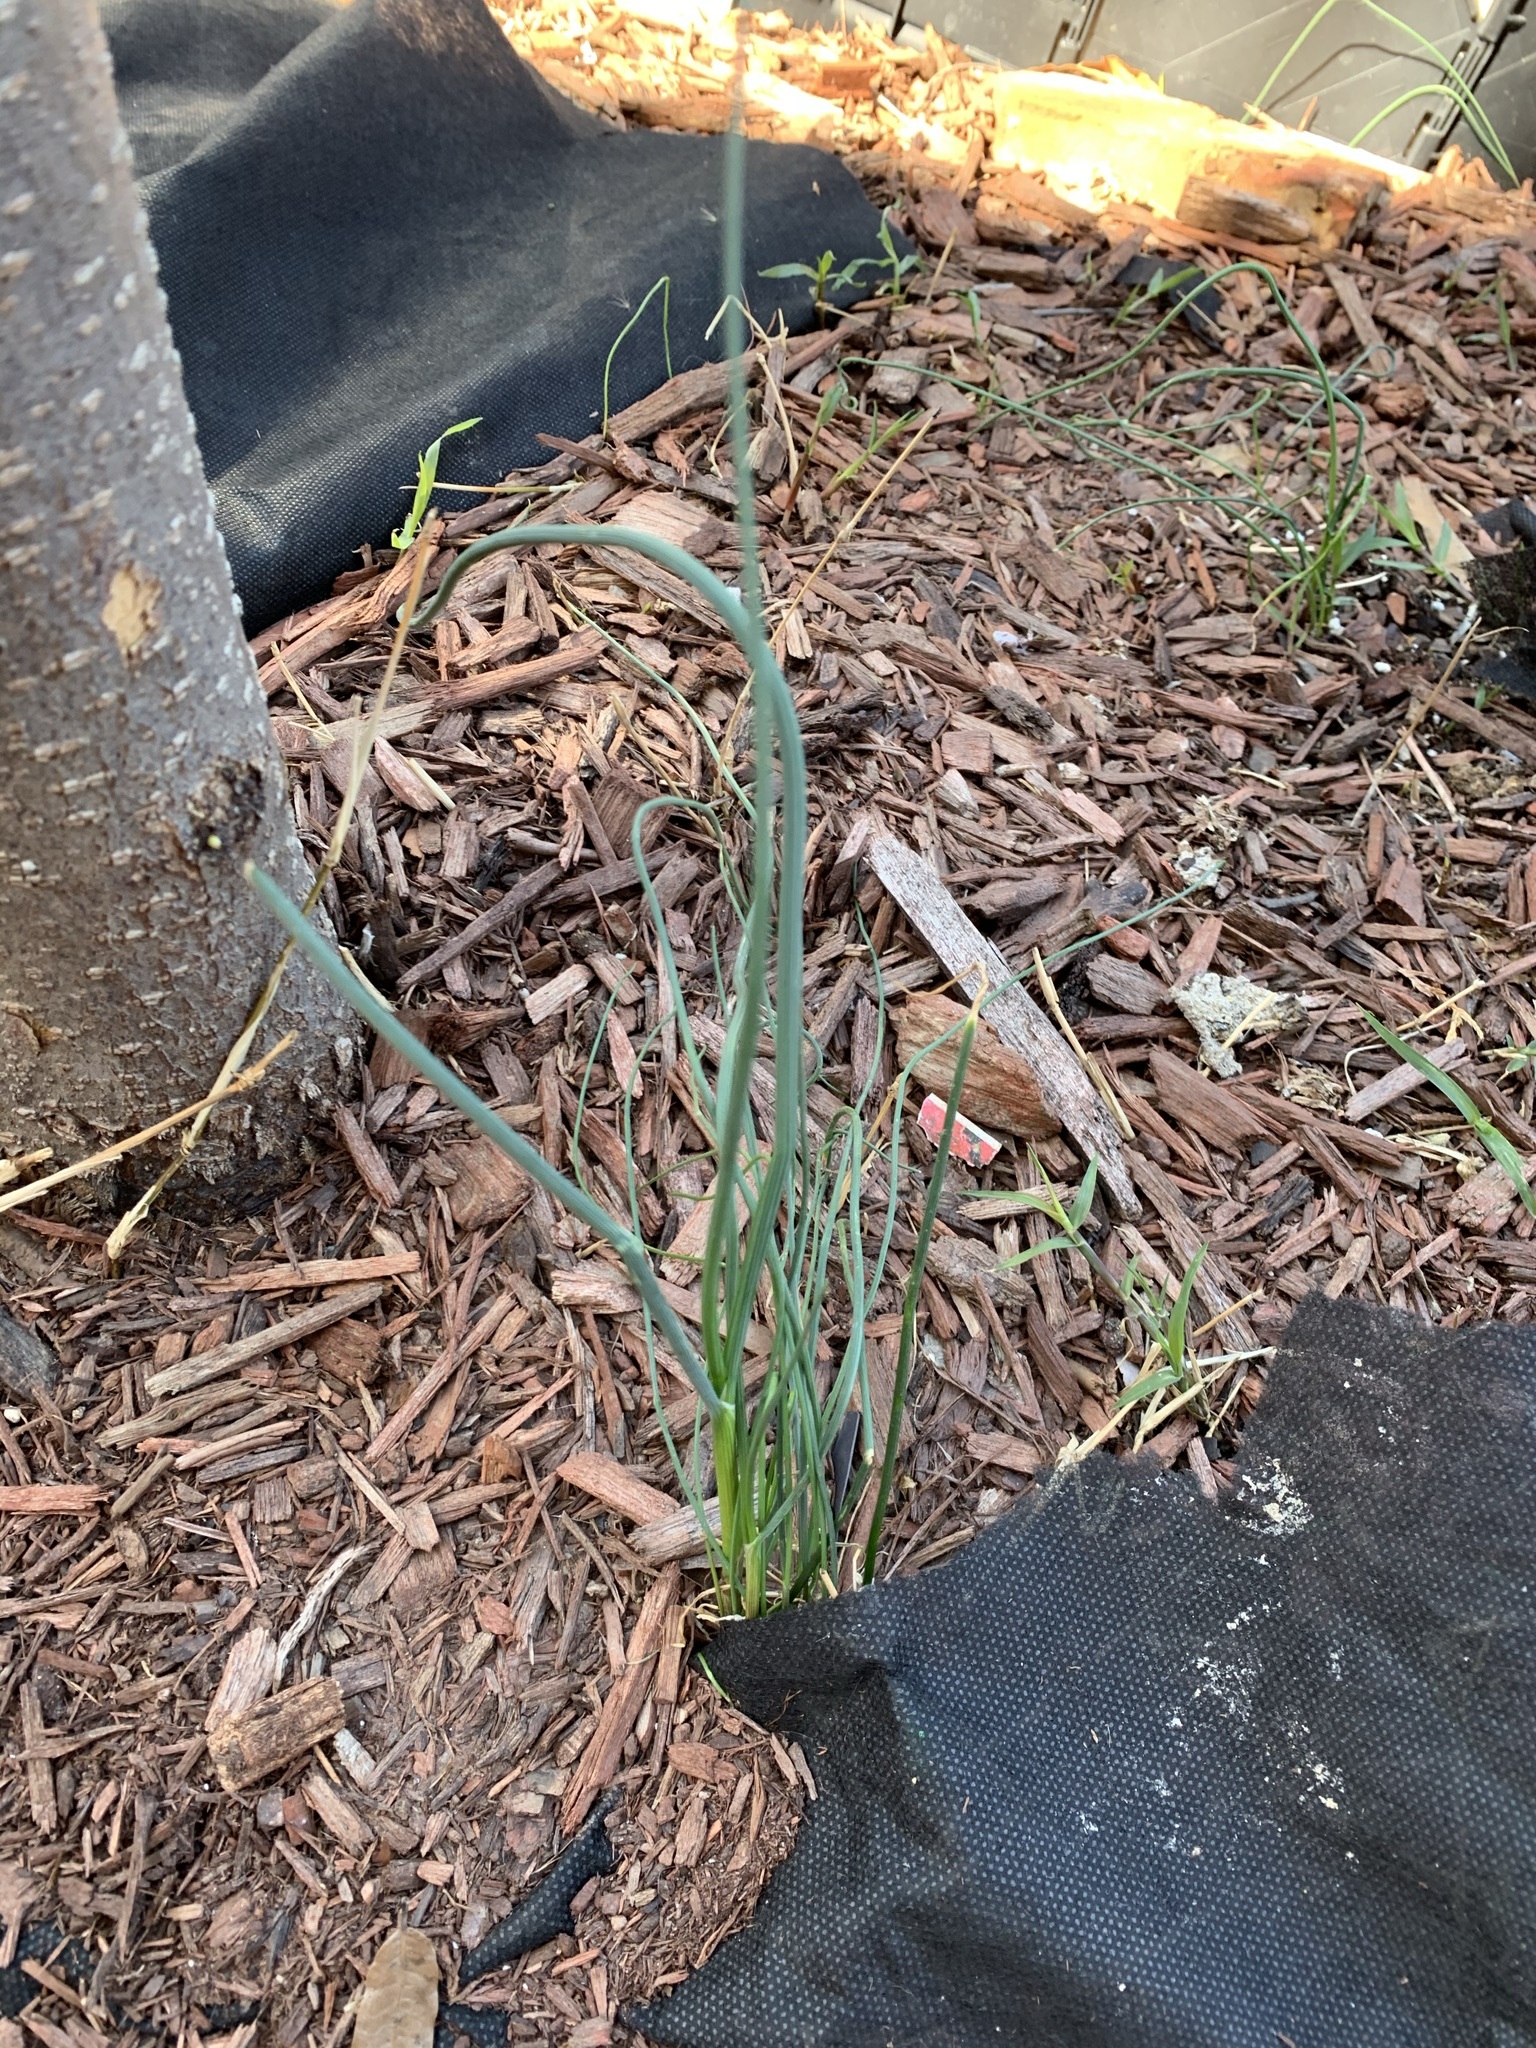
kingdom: Plantae
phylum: Tracheophyta
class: Liliopsida
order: Asparagales
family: Amaryllidaceae
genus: Allium
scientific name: Allium vineale
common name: Crow garlic
